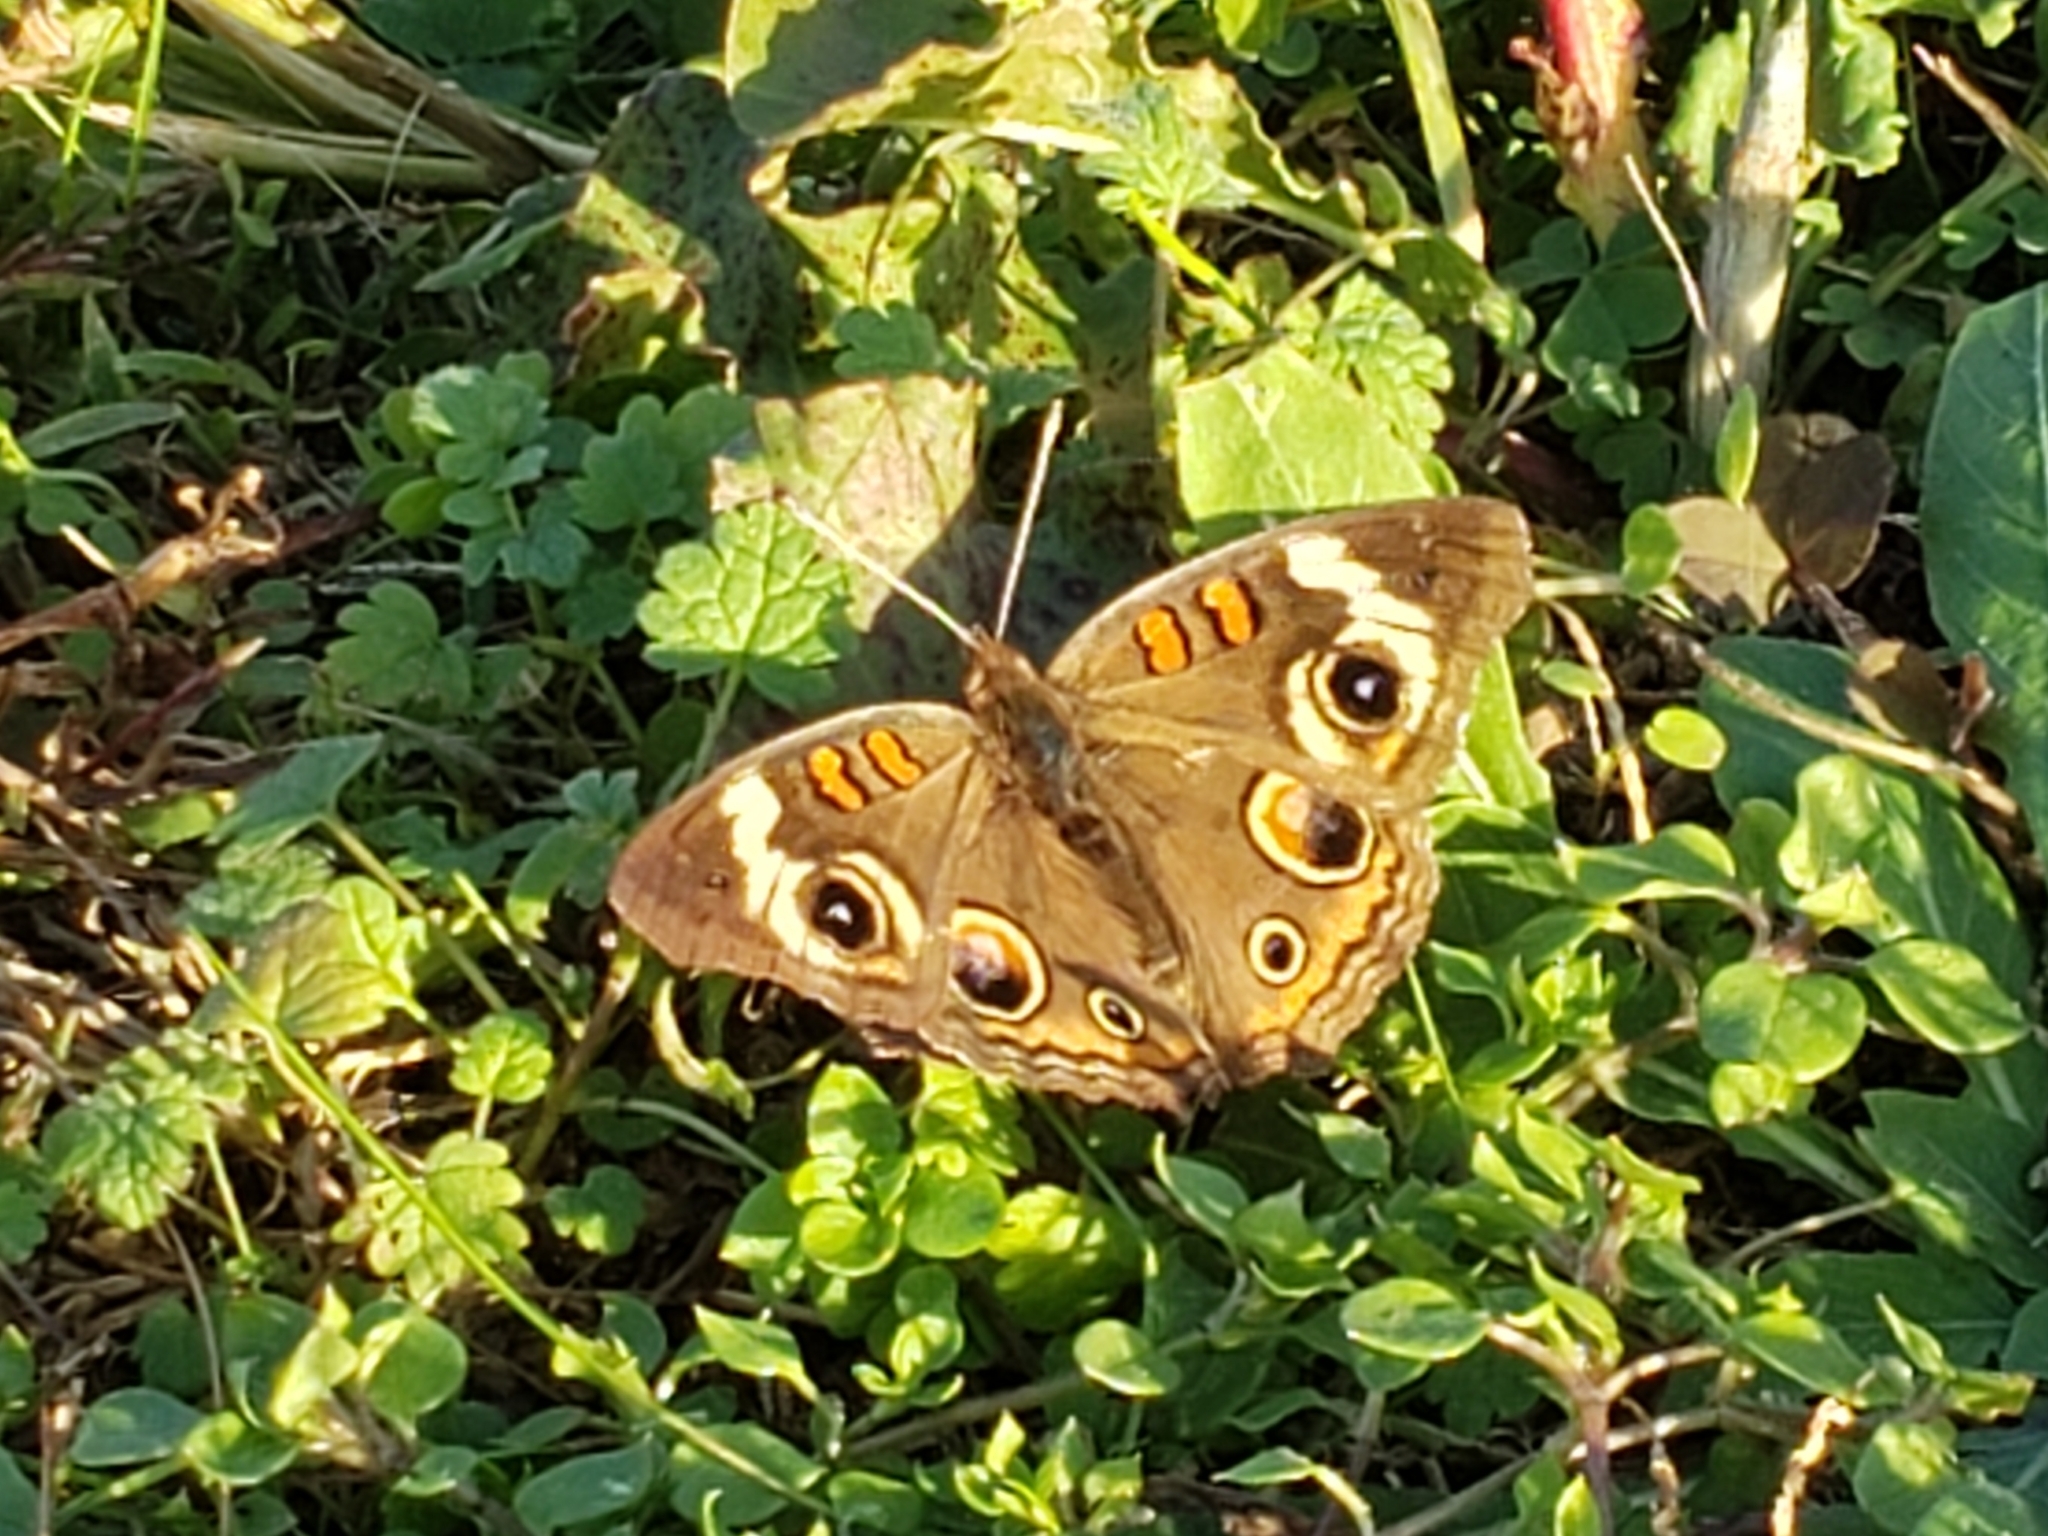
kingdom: Animalia
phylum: Arthropoda
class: Insecta
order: Lepidoptera
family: Nymphalidae
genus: Junonia
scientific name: Junonia coenia
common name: Common buckeye
